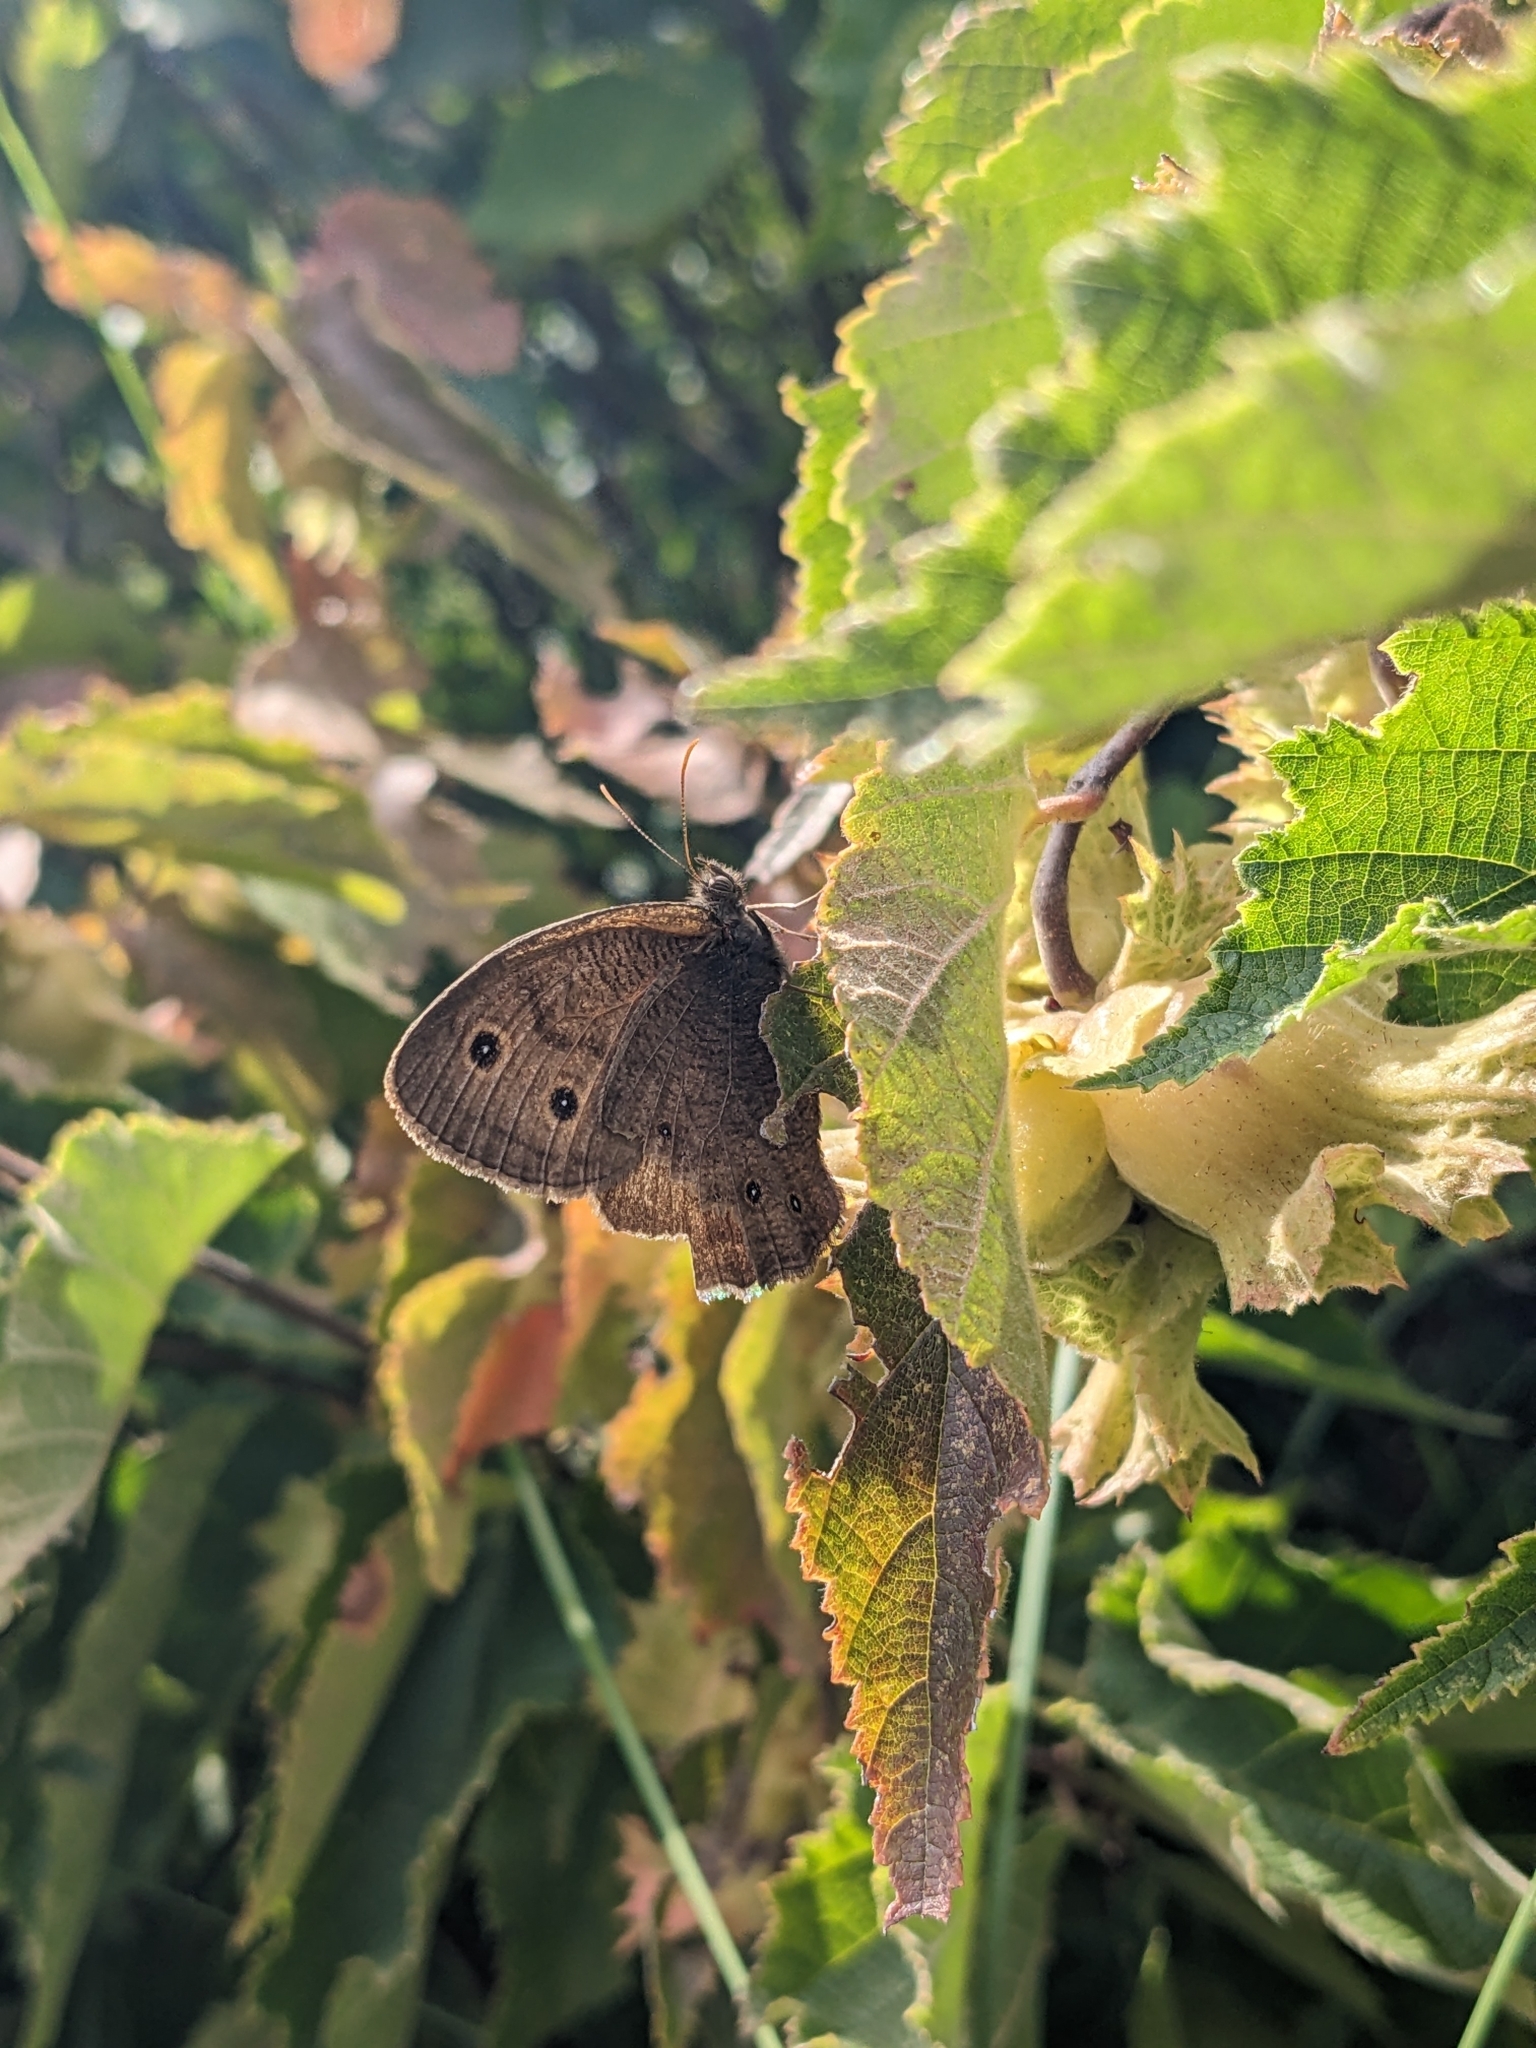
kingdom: Animalia
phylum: Arthropoda
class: Insecta
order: Lepidoptera
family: Nymphalidae
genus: Cercyonis
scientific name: Cercyonis pegala
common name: Common wood-nymph
